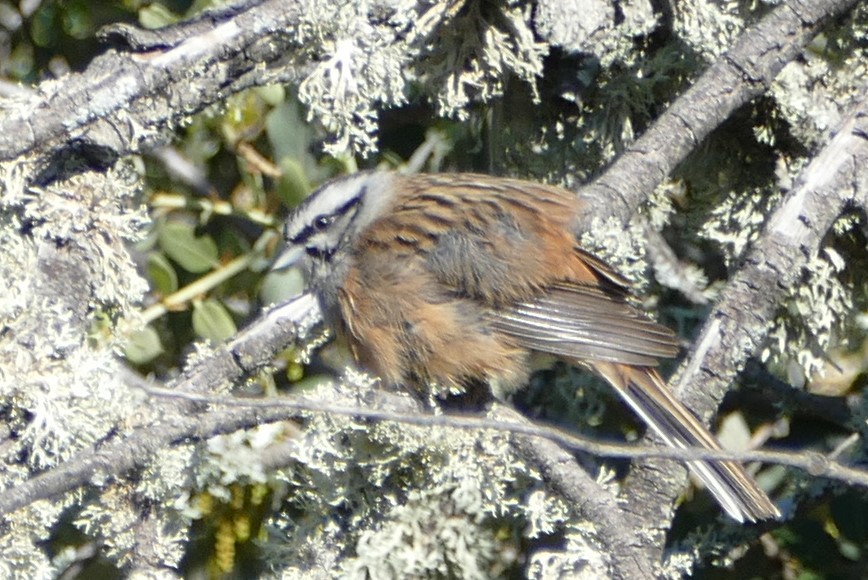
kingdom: Animalia
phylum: Chordata
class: Aves
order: Passeriformes
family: Emberizidae
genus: Emberiza
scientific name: Emberiza cia
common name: Rock bunting
